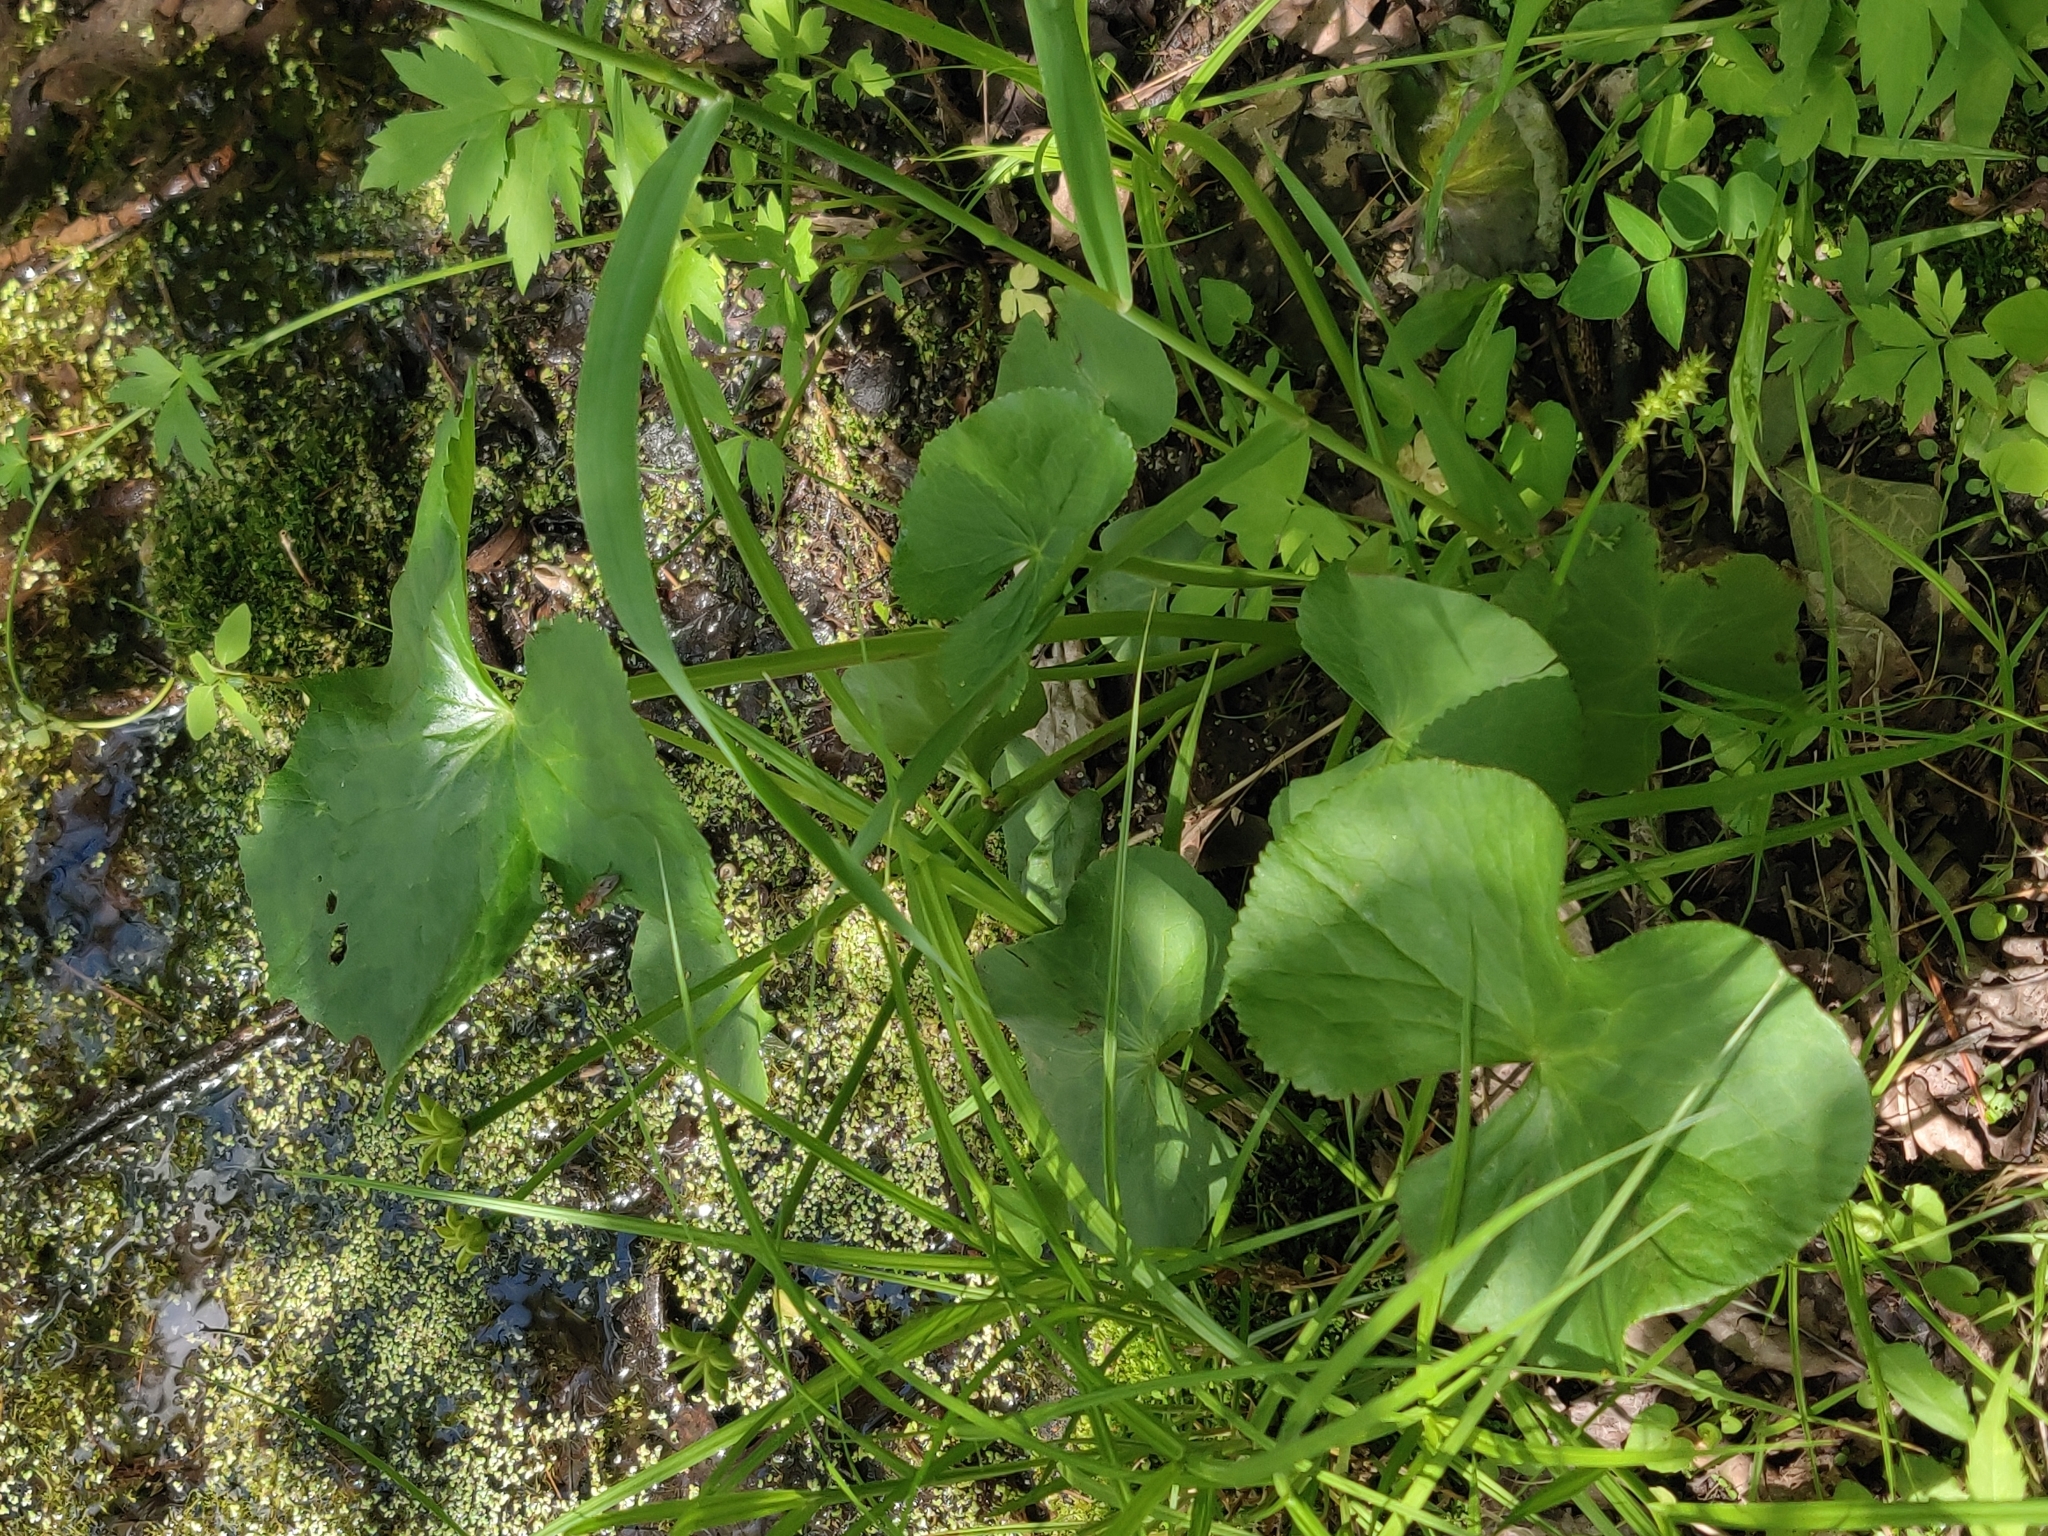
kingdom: Plantae
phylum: Tracheophyta
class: Magnoliopsida
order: Ranunculales
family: Ranunculaceae
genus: Caltha
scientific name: Caltha palustris
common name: Marsh marigold
